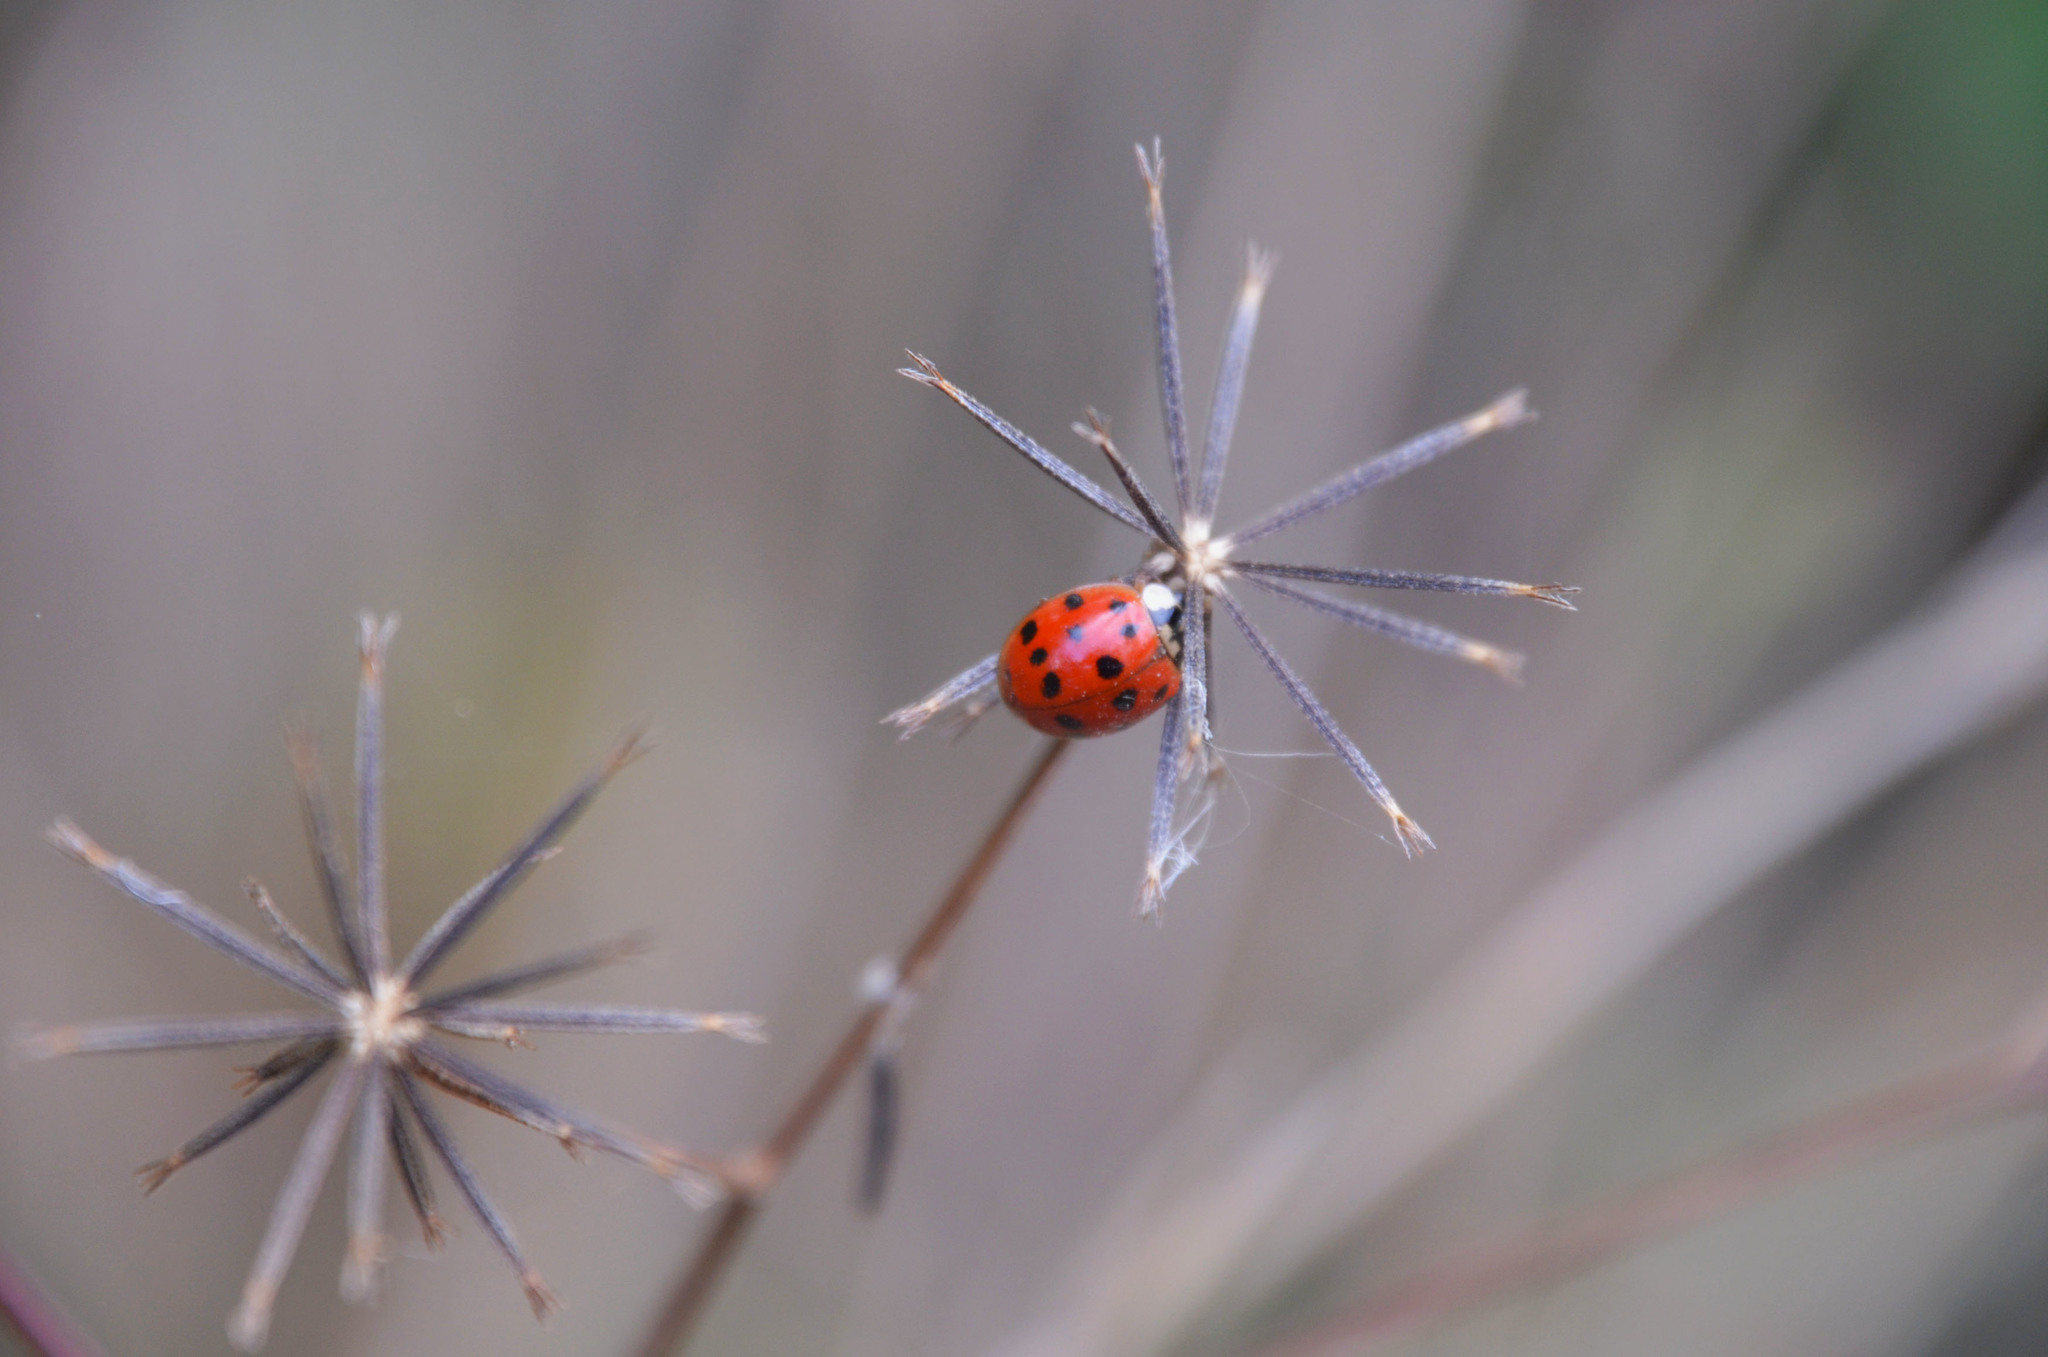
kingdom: Animalia
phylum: Arthropoda
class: Insecta
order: Coleoptera
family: Coccinellidae
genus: Harmonia
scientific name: Harmonia axyridis
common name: Harlequin ladybird
